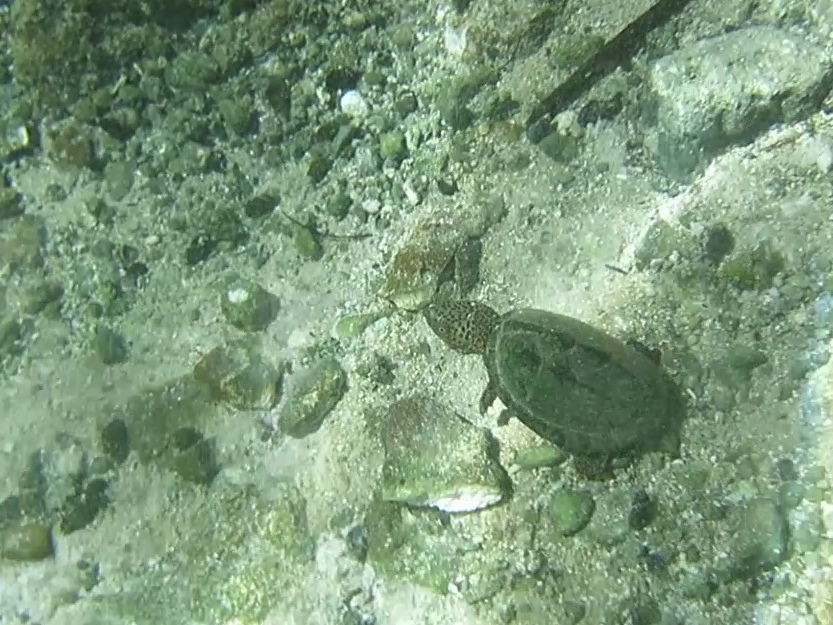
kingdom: Animalia
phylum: Chordata
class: Testudines
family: Kinosternidae
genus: Sternotherus
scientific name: Sternotherus minor
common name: Loggerhead musk turtle
